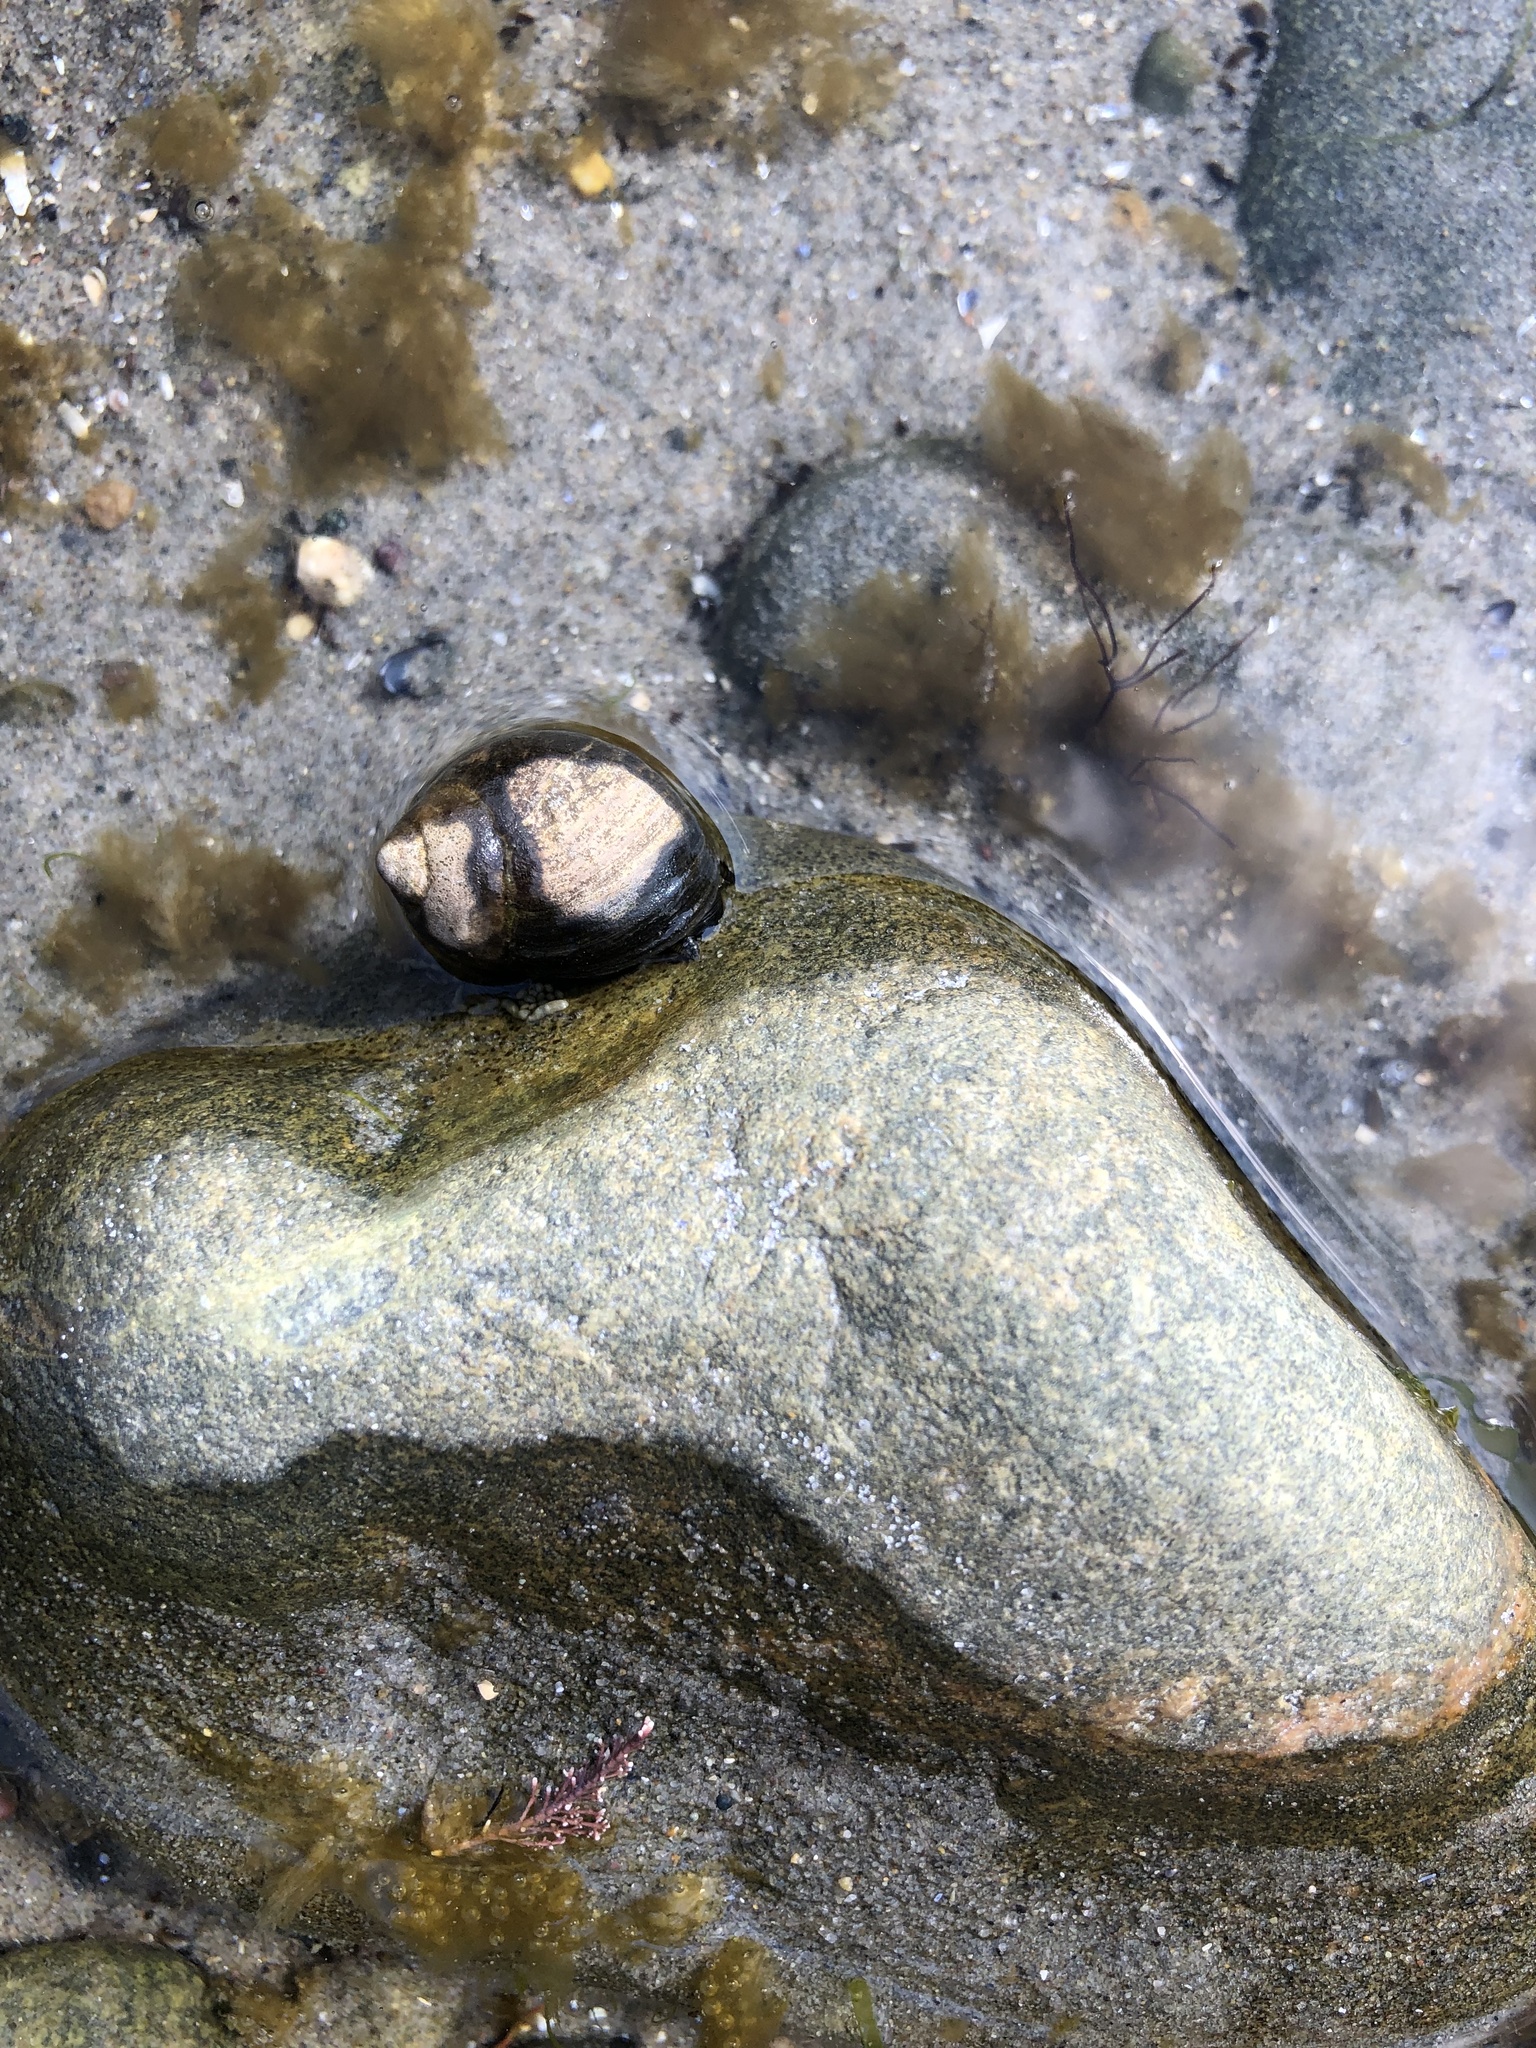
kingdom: Animalia
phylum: Mollusca
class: Gastropoda
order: Littorinimorpha
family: Littorinidae
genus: Littorina
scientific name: Littorina littorea
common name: Common periwinkle
